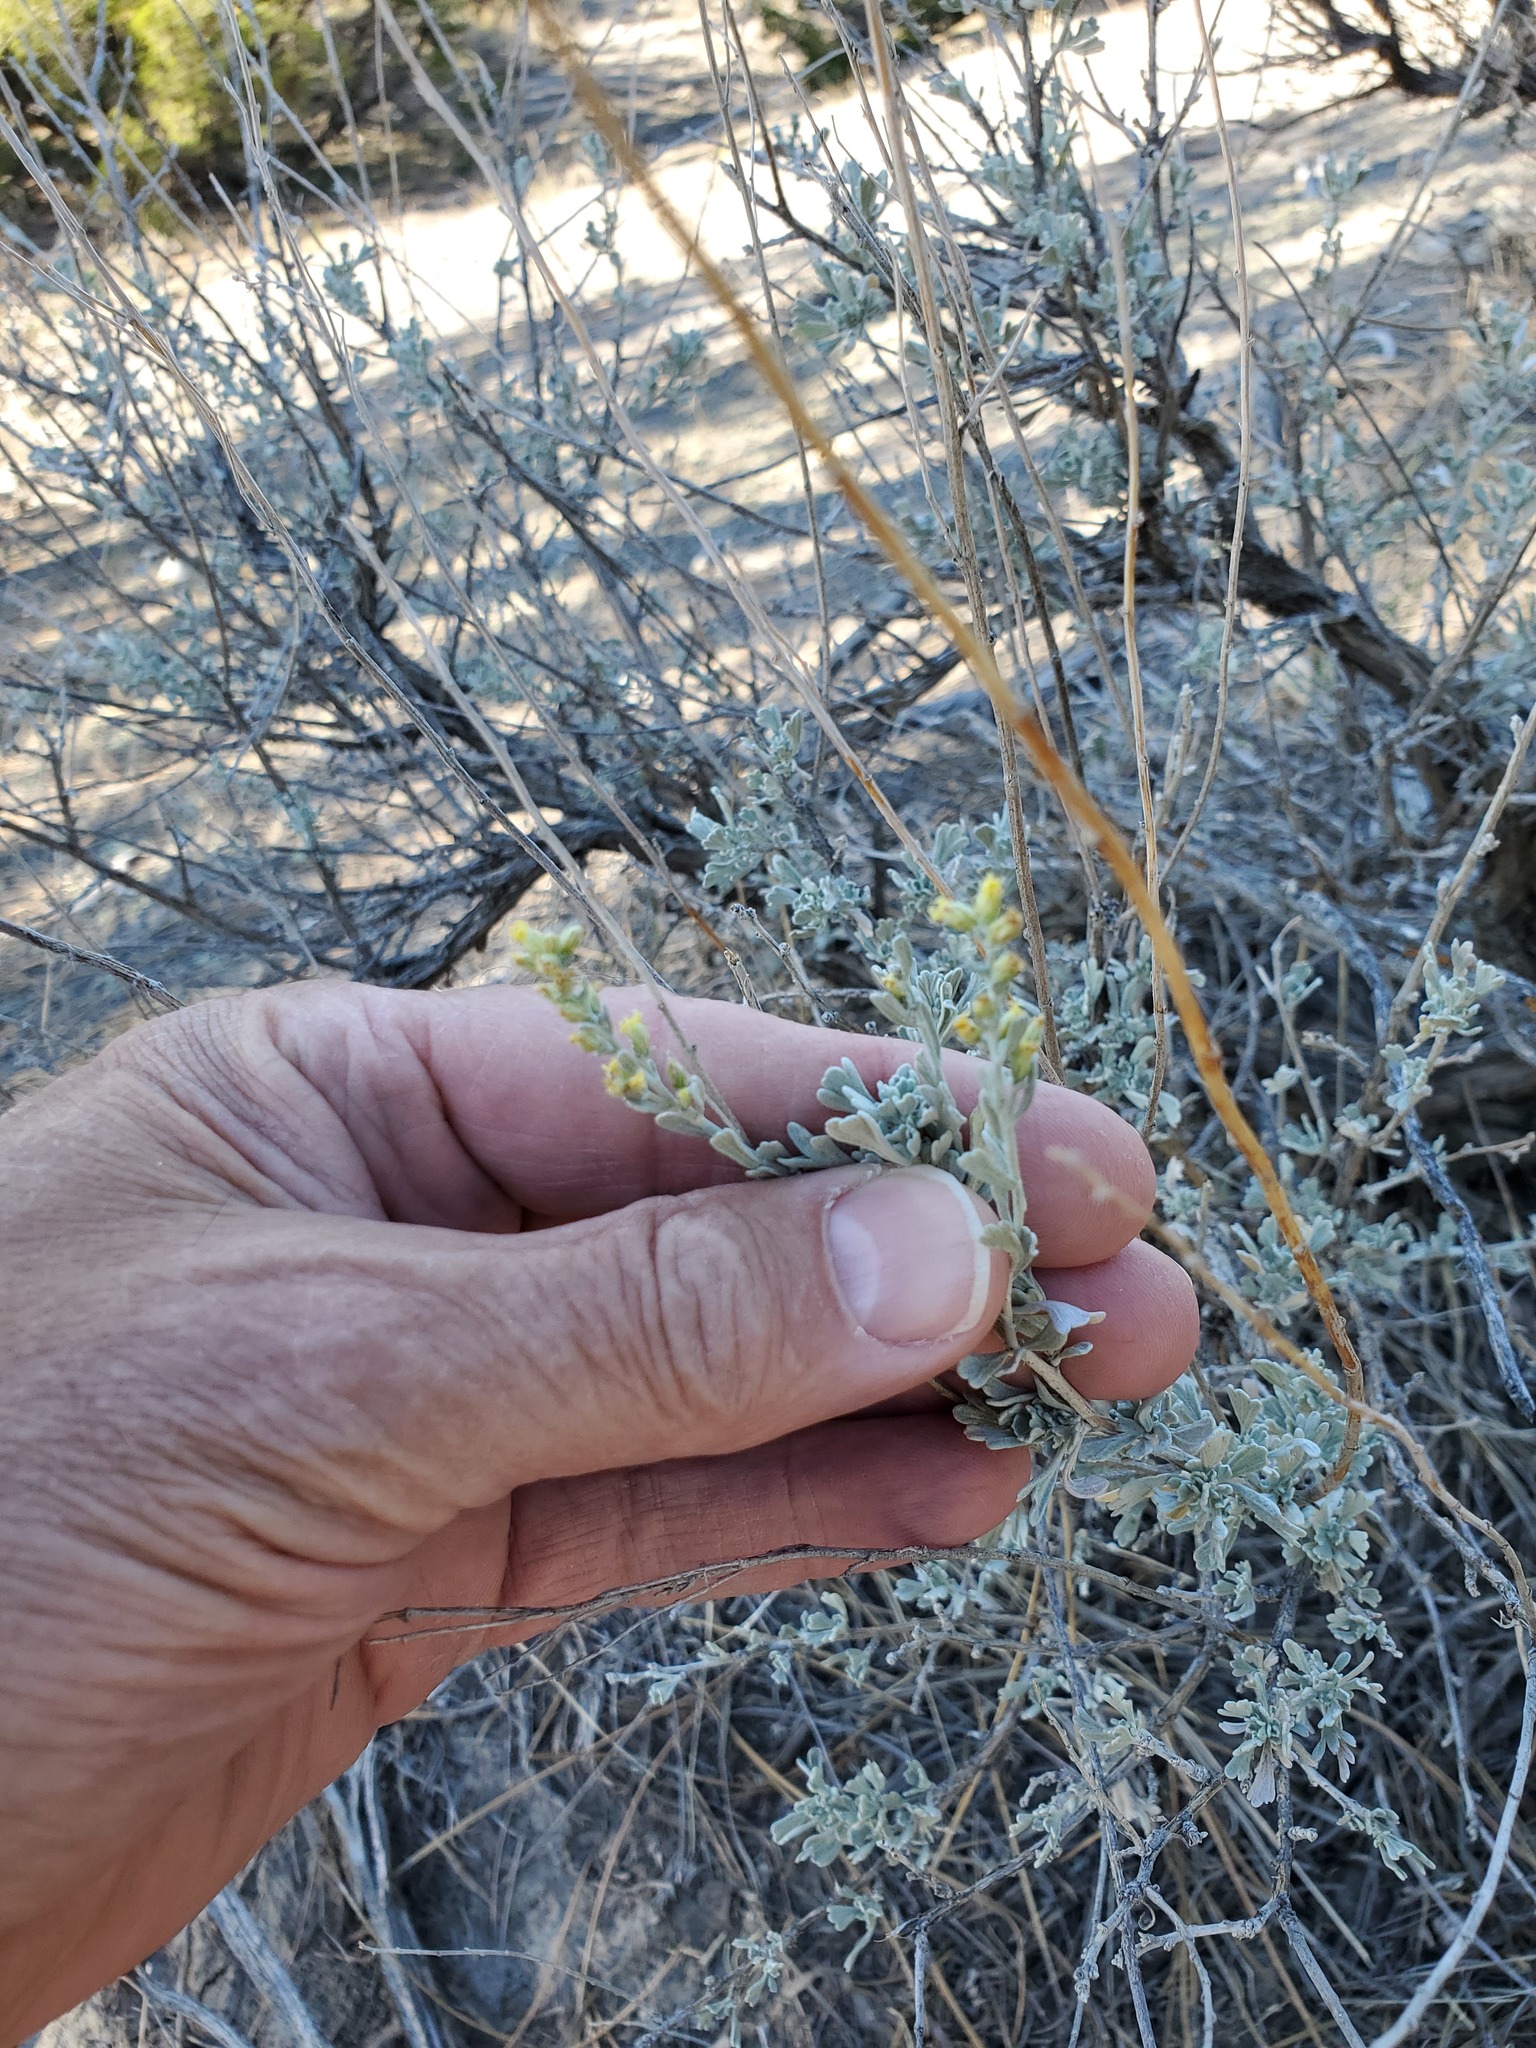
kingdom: Plantae
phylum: Tracheophyta
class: Magnoliopsida
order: Asterales
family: Asteraceae
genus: Artemisia
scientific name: Artemisia tridentata
